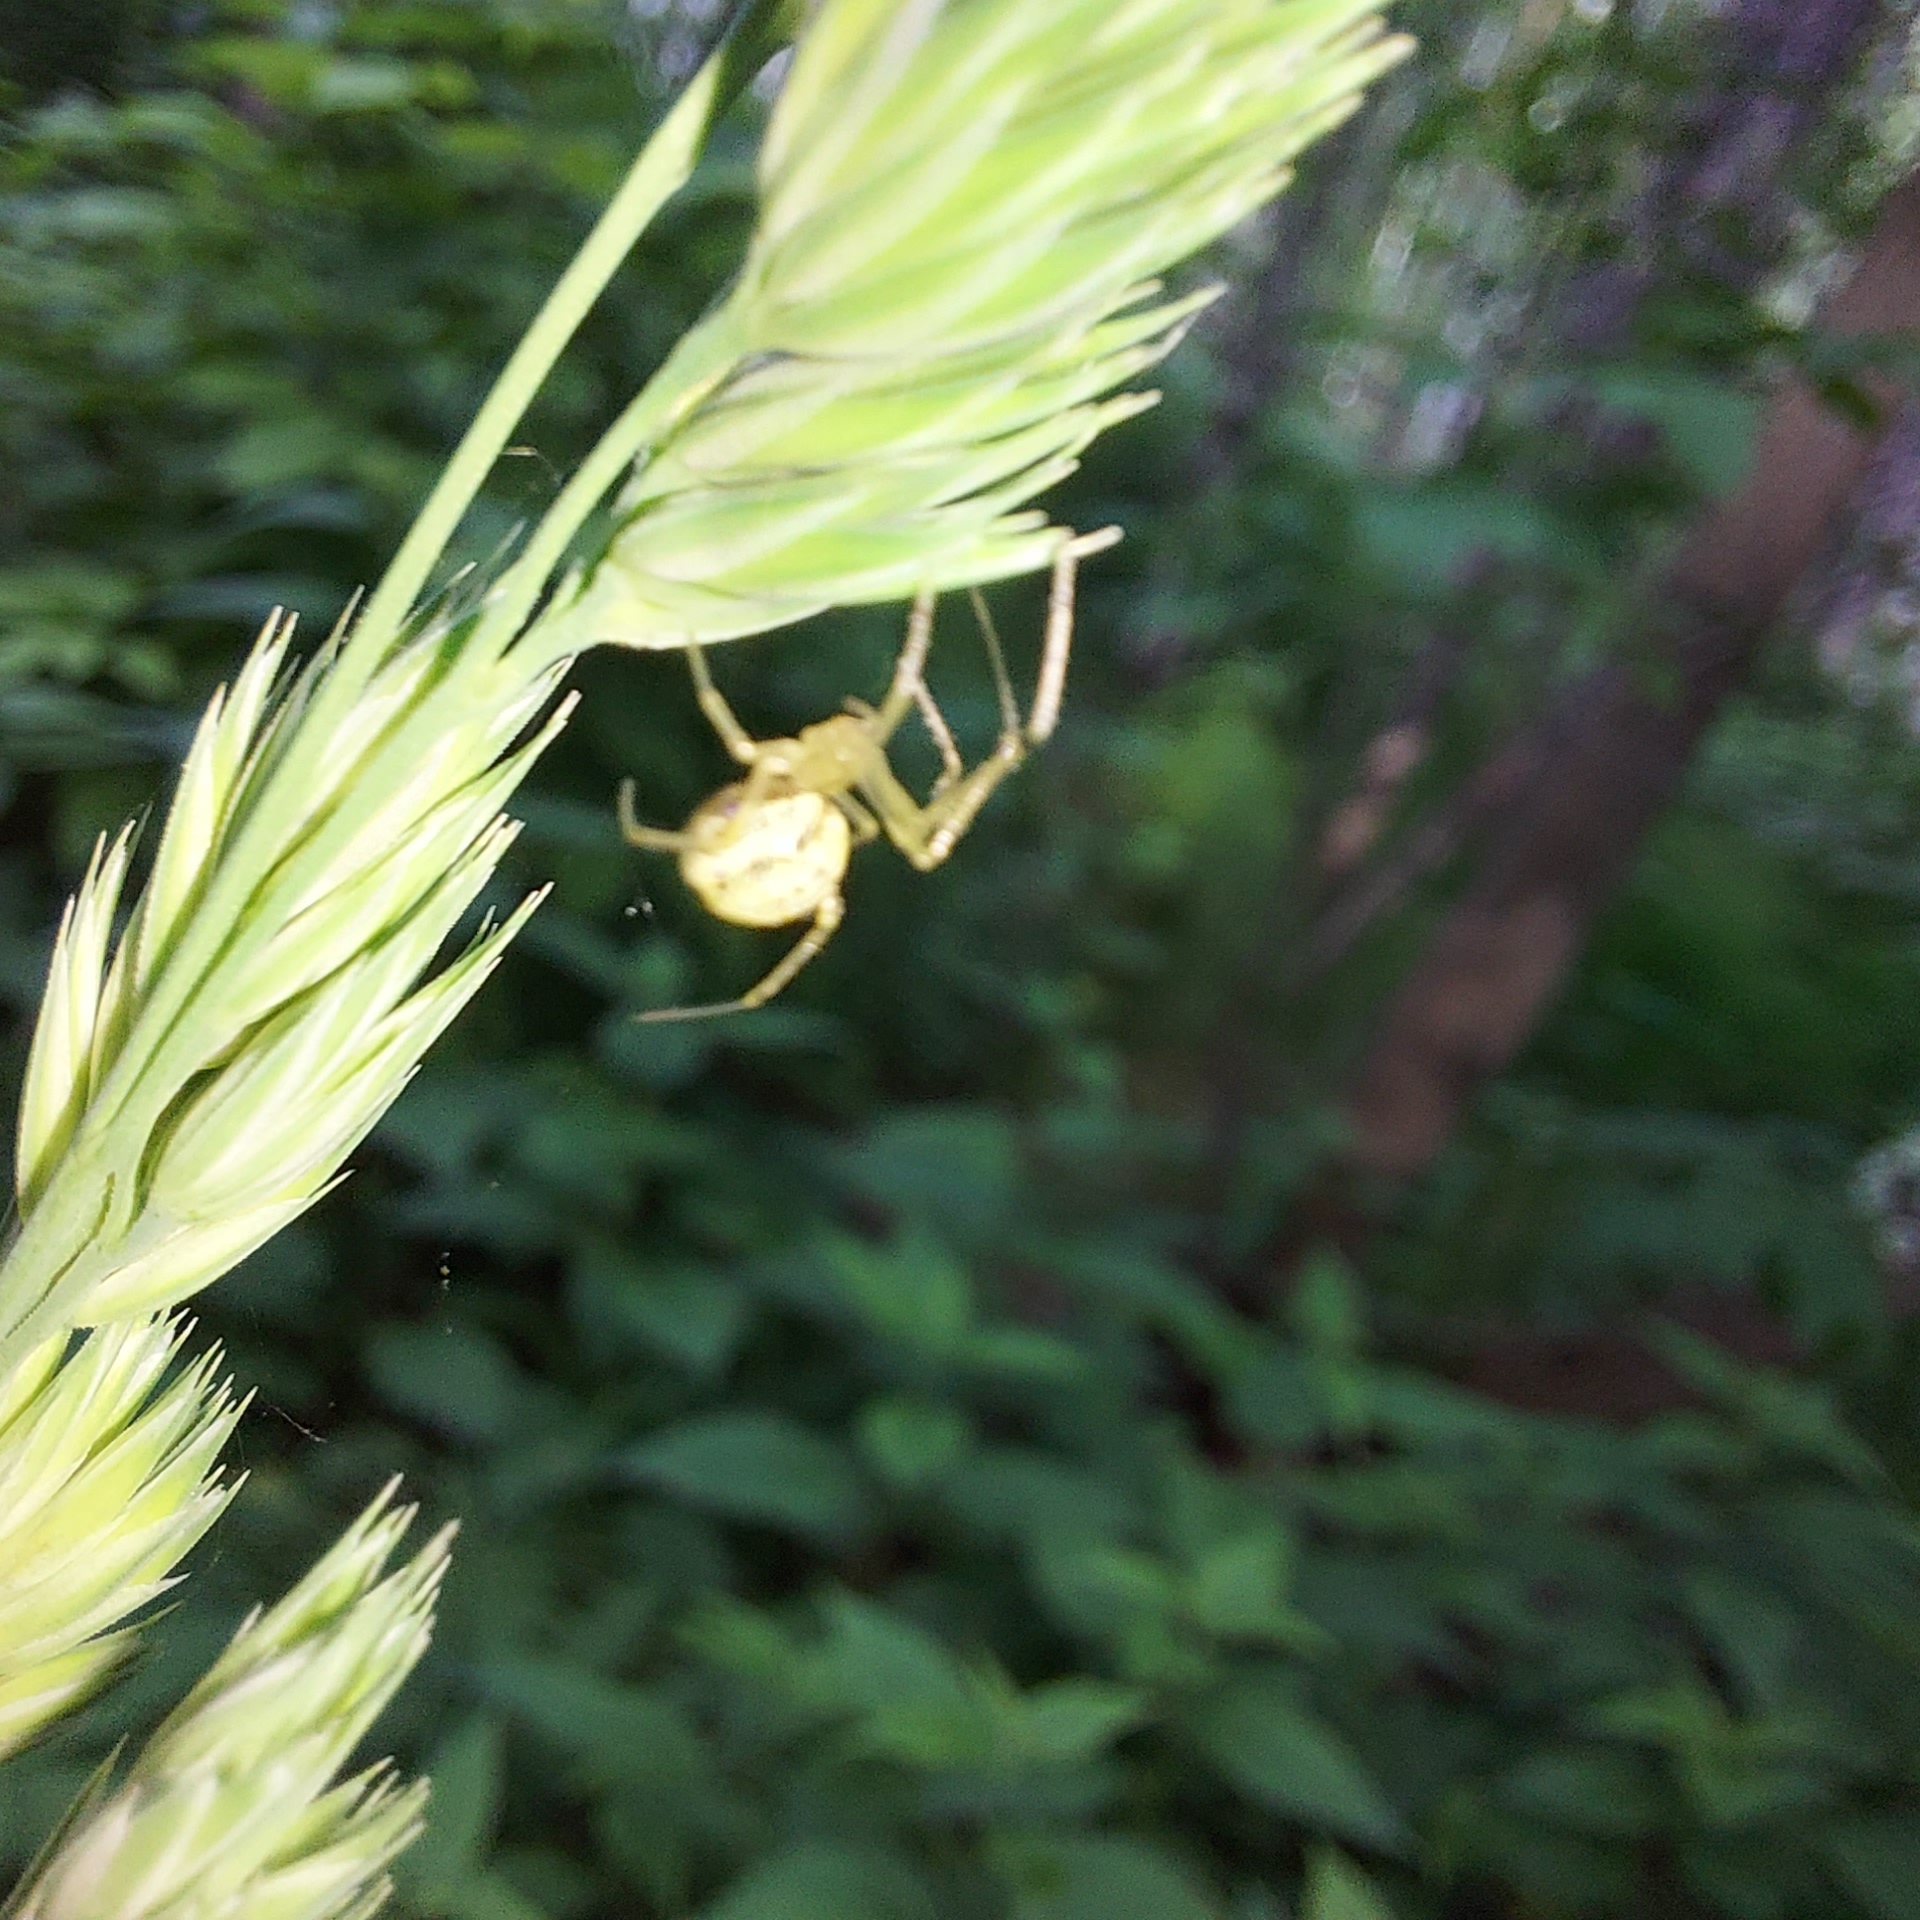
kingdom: Animalia
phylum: Arthropoda
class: Arachnida
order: Araneae
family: Theridiidae
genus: Enoplognatha
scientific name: Enoplognatha ovata
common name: Common candy-striped spider
